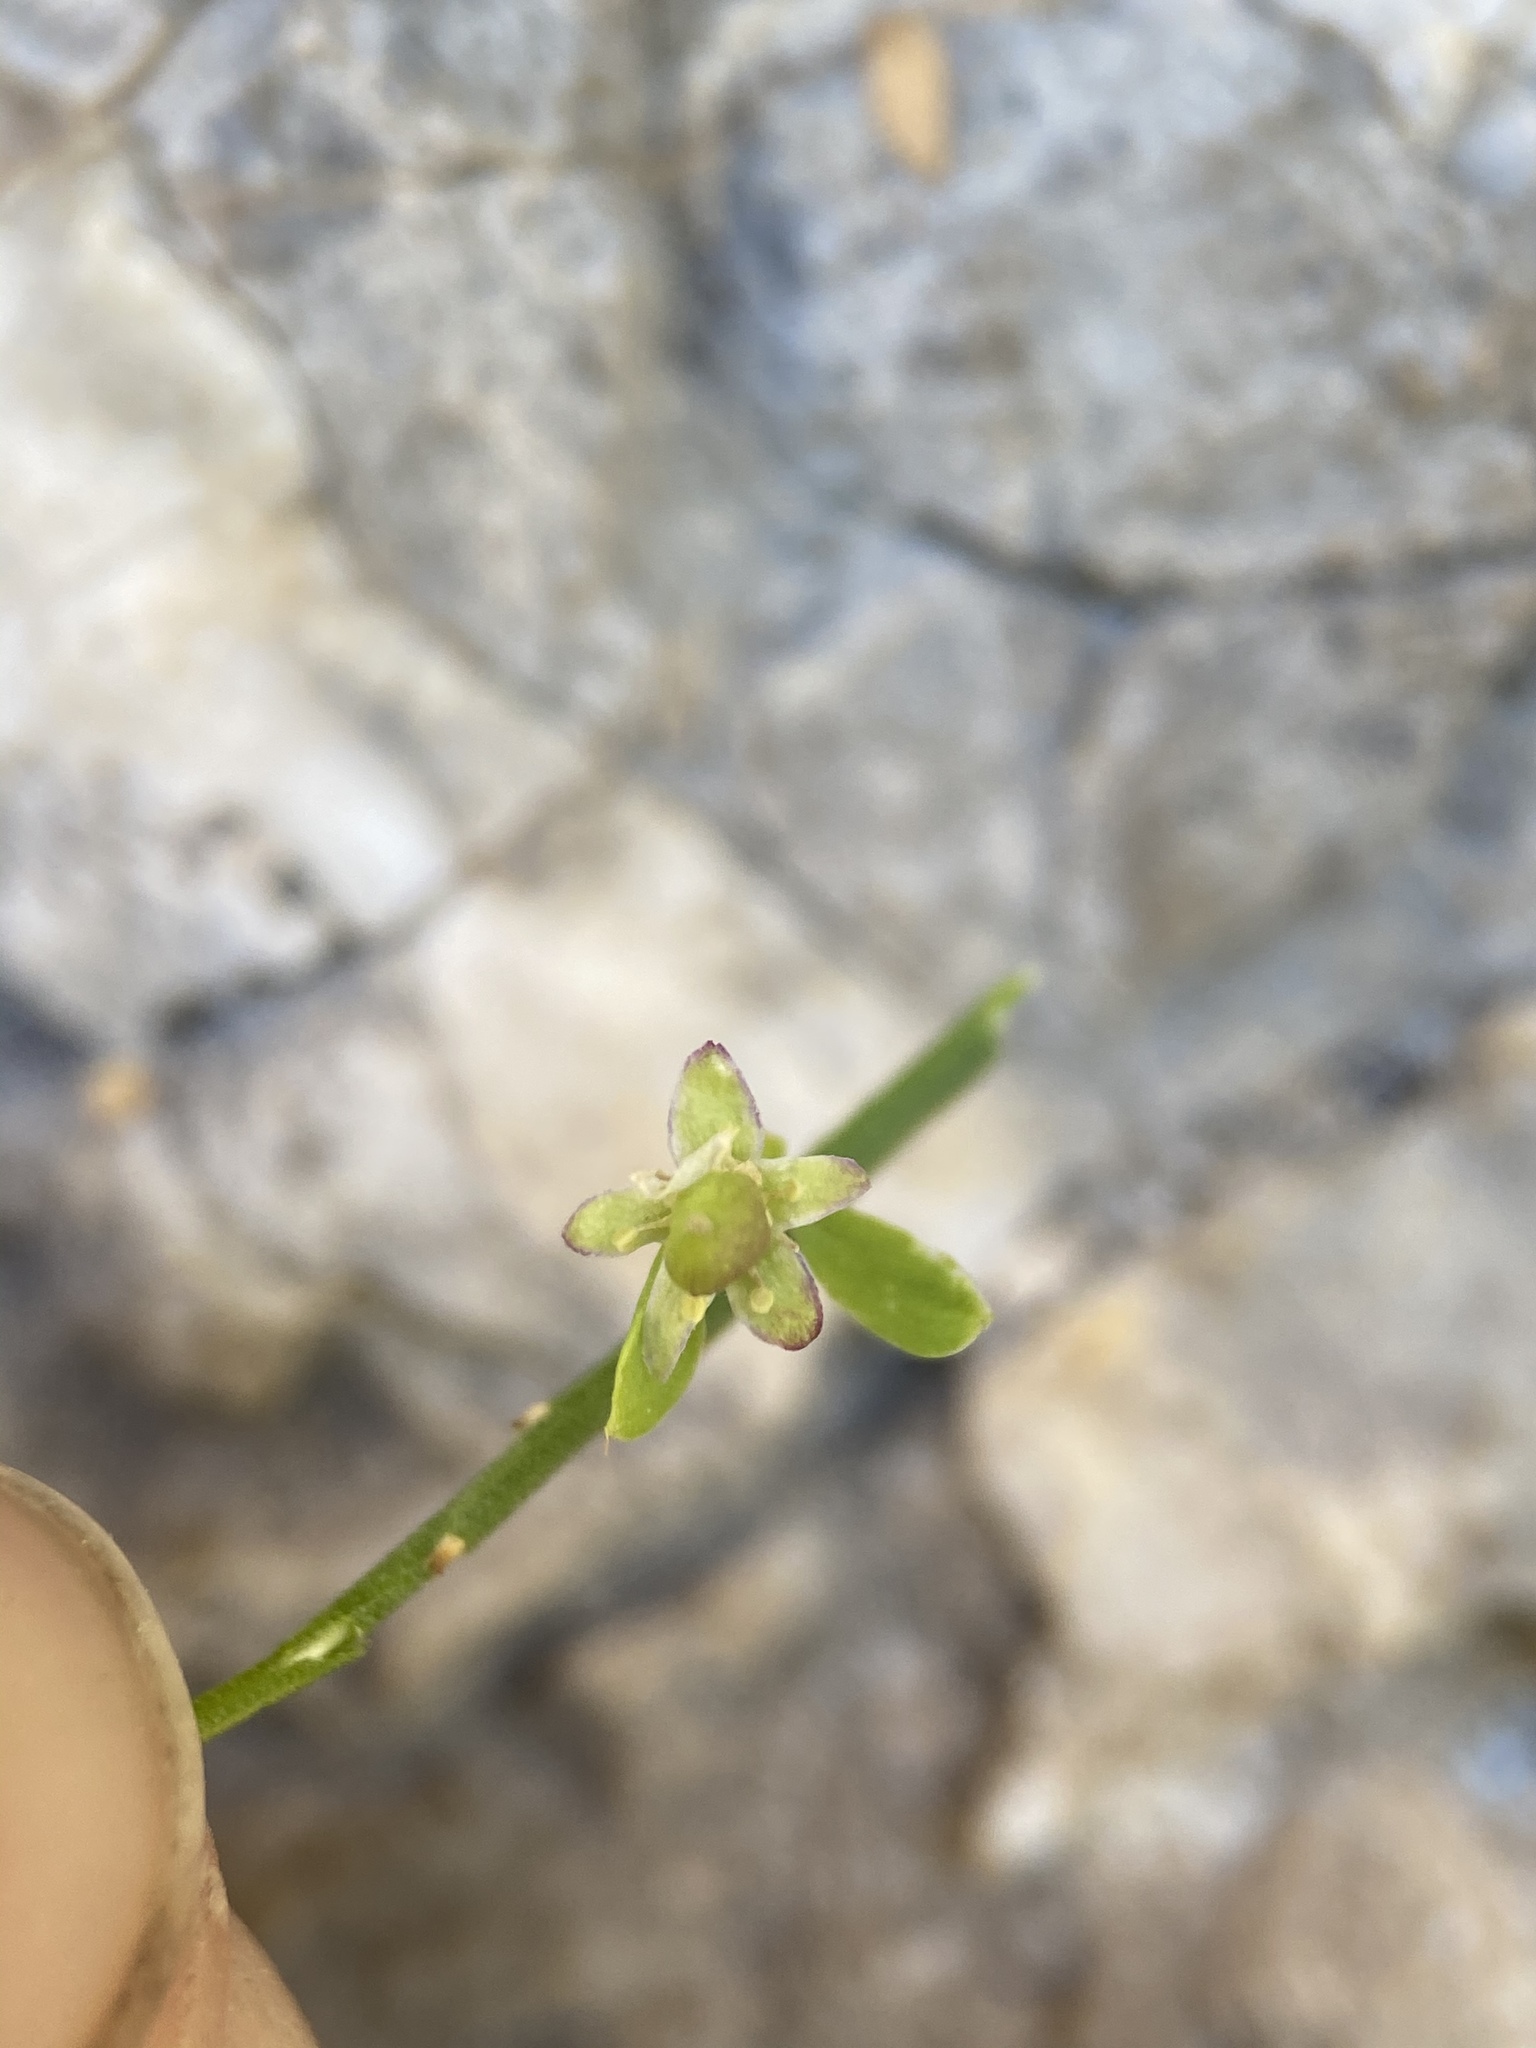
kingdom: Plantae
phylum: Tracheophyta
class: Magnoliopsida
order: Crossosomatales
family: Crossosomataceae
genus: Glossopetalon
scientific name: Glossopetalon spinescens
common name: Spring greasebush
